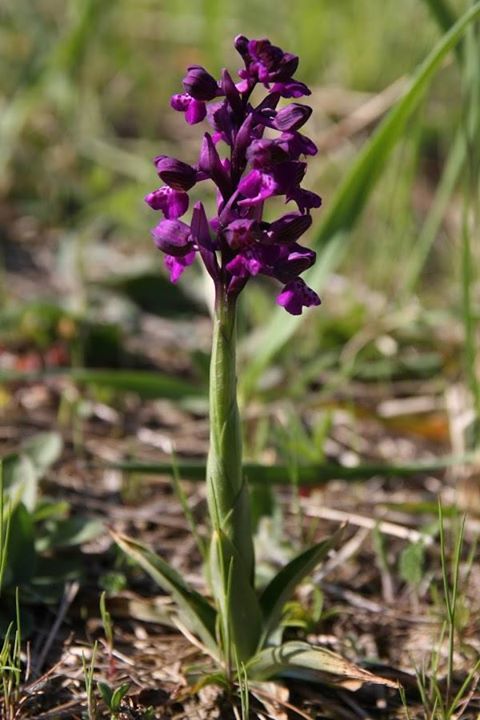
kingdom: Plantae
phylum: Tracheophyta
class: Liliopsida
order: Asparagales
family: Orchidaceae
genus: Anacamptis
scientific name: Anacamptis morio
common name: Green-winged orchid
